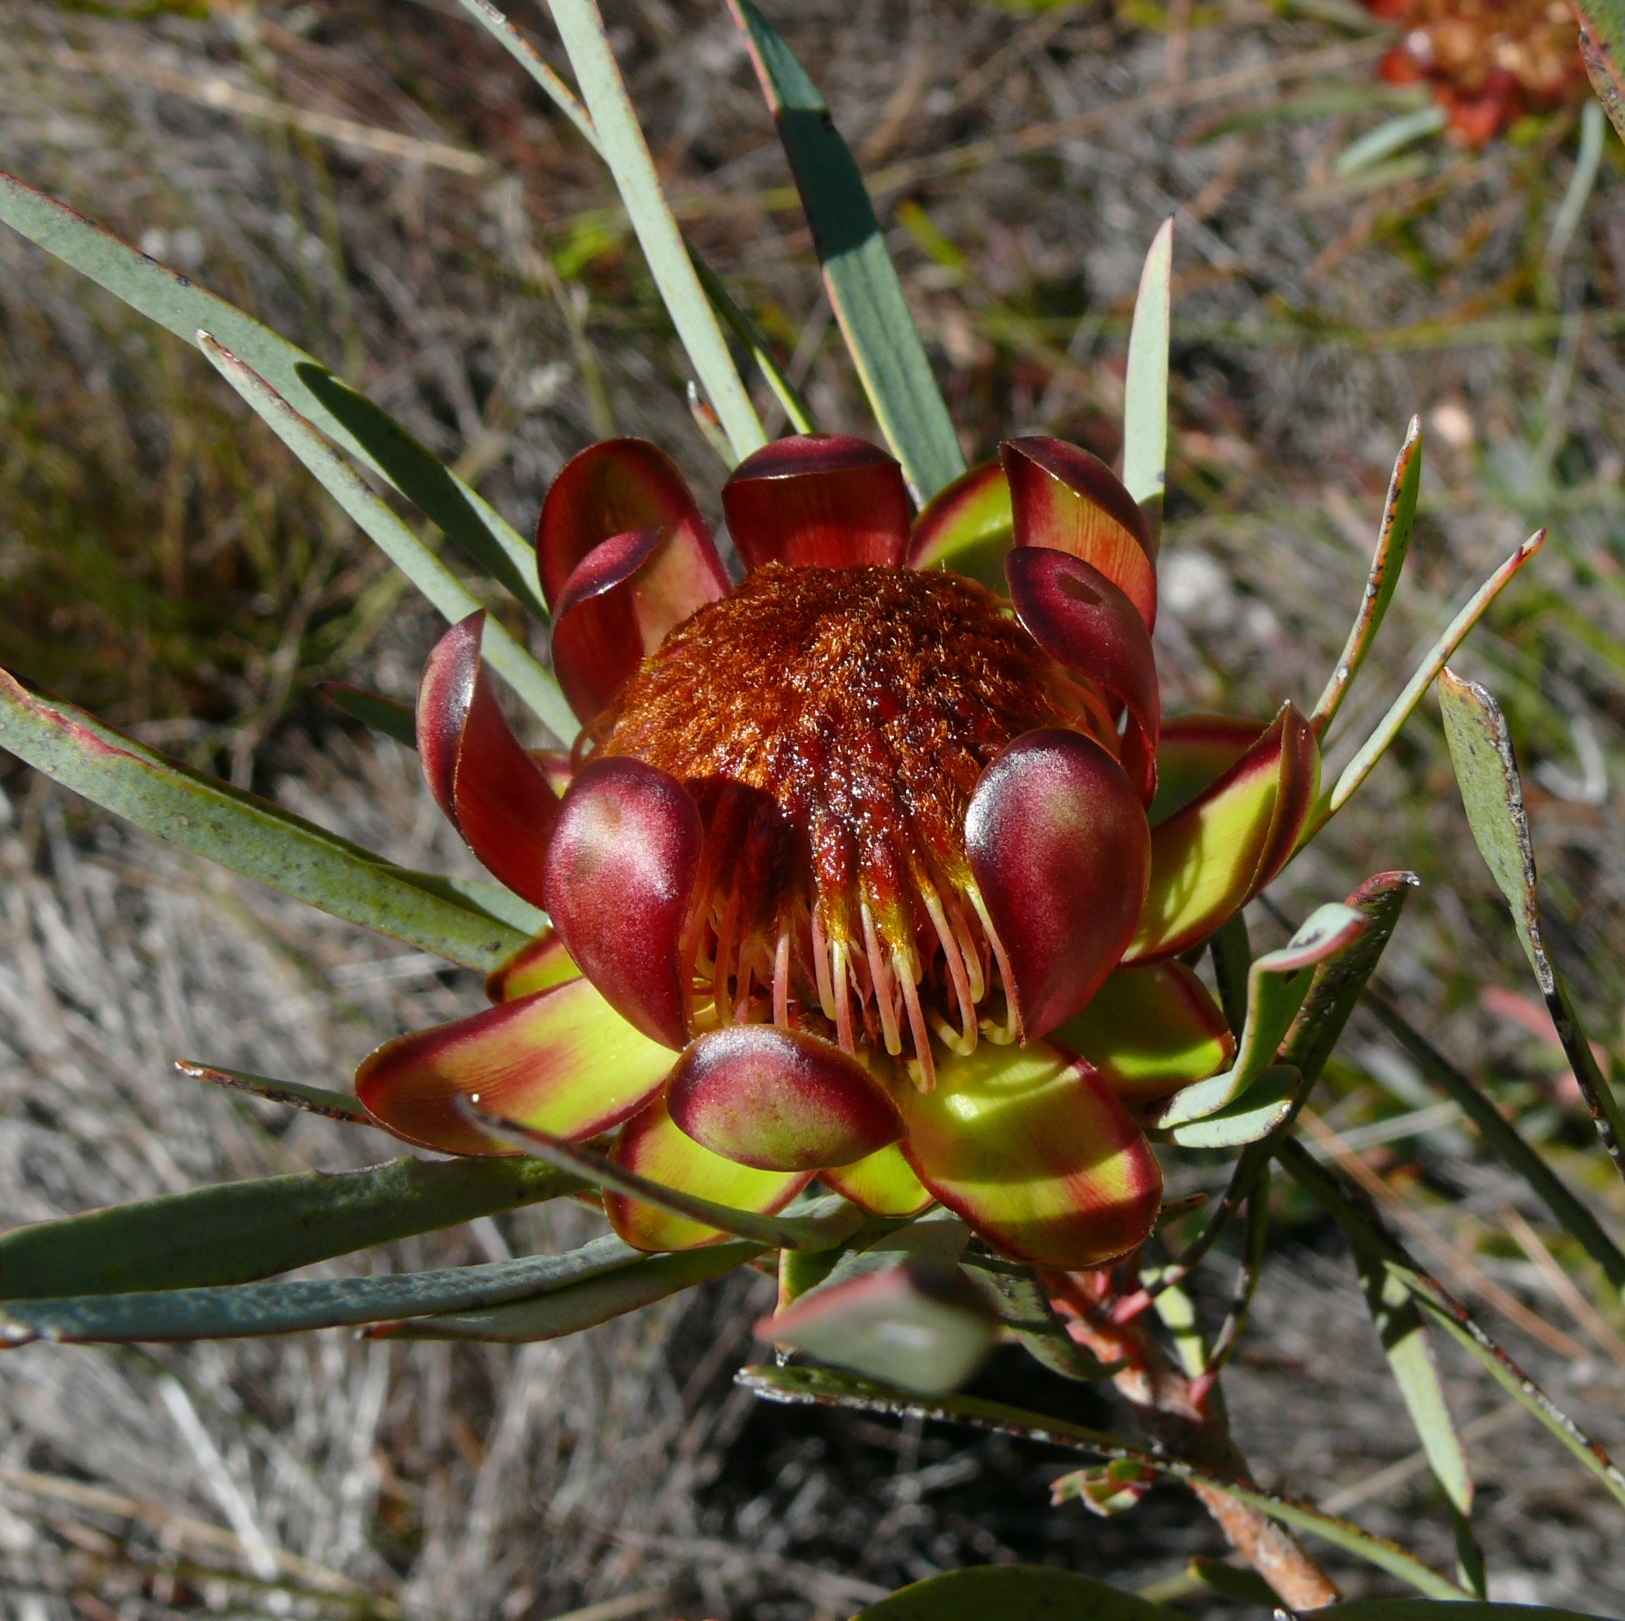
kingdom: Plantae
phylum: Tracheophyta
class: Magnoliopsida
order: Proteales
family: Proteaceae
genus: Protea
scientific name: Protea acuminata
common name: Black-rim sugarbush
